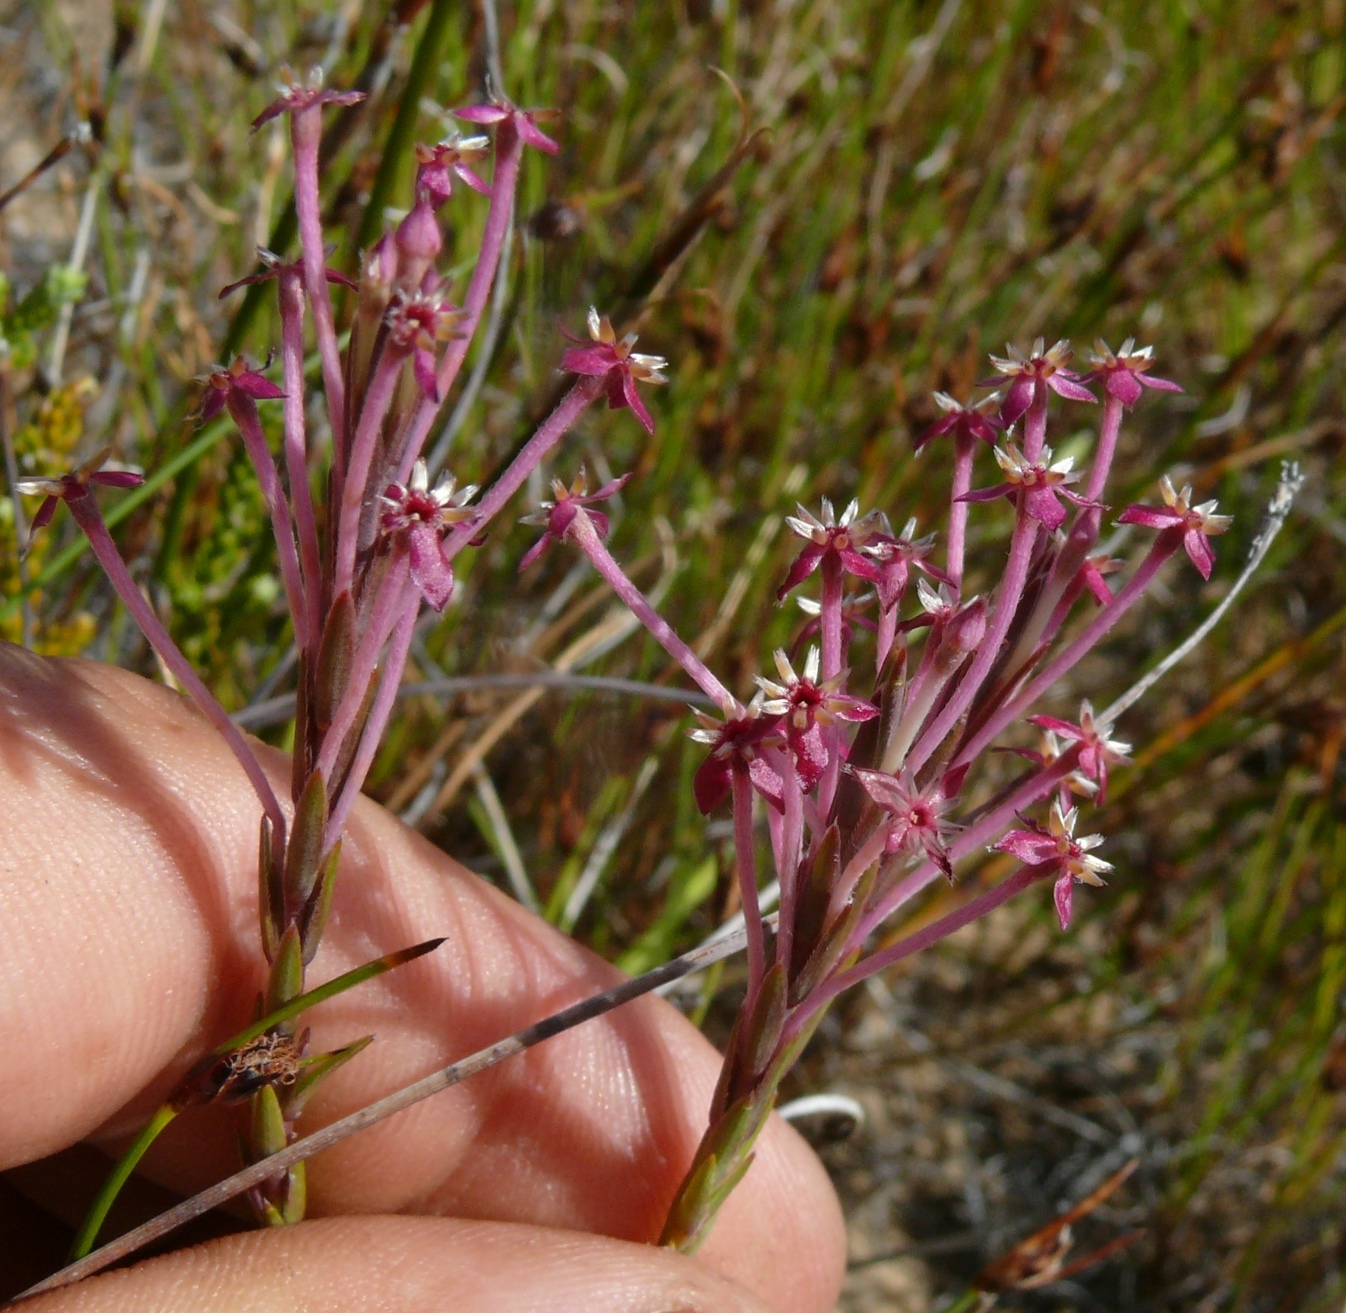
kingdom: Plantae
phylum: Tracheophyta
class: Magnoliopsida
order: Malvales
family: Thymelaeaceae
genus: Struthiola
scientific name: Struthiola ciliata
